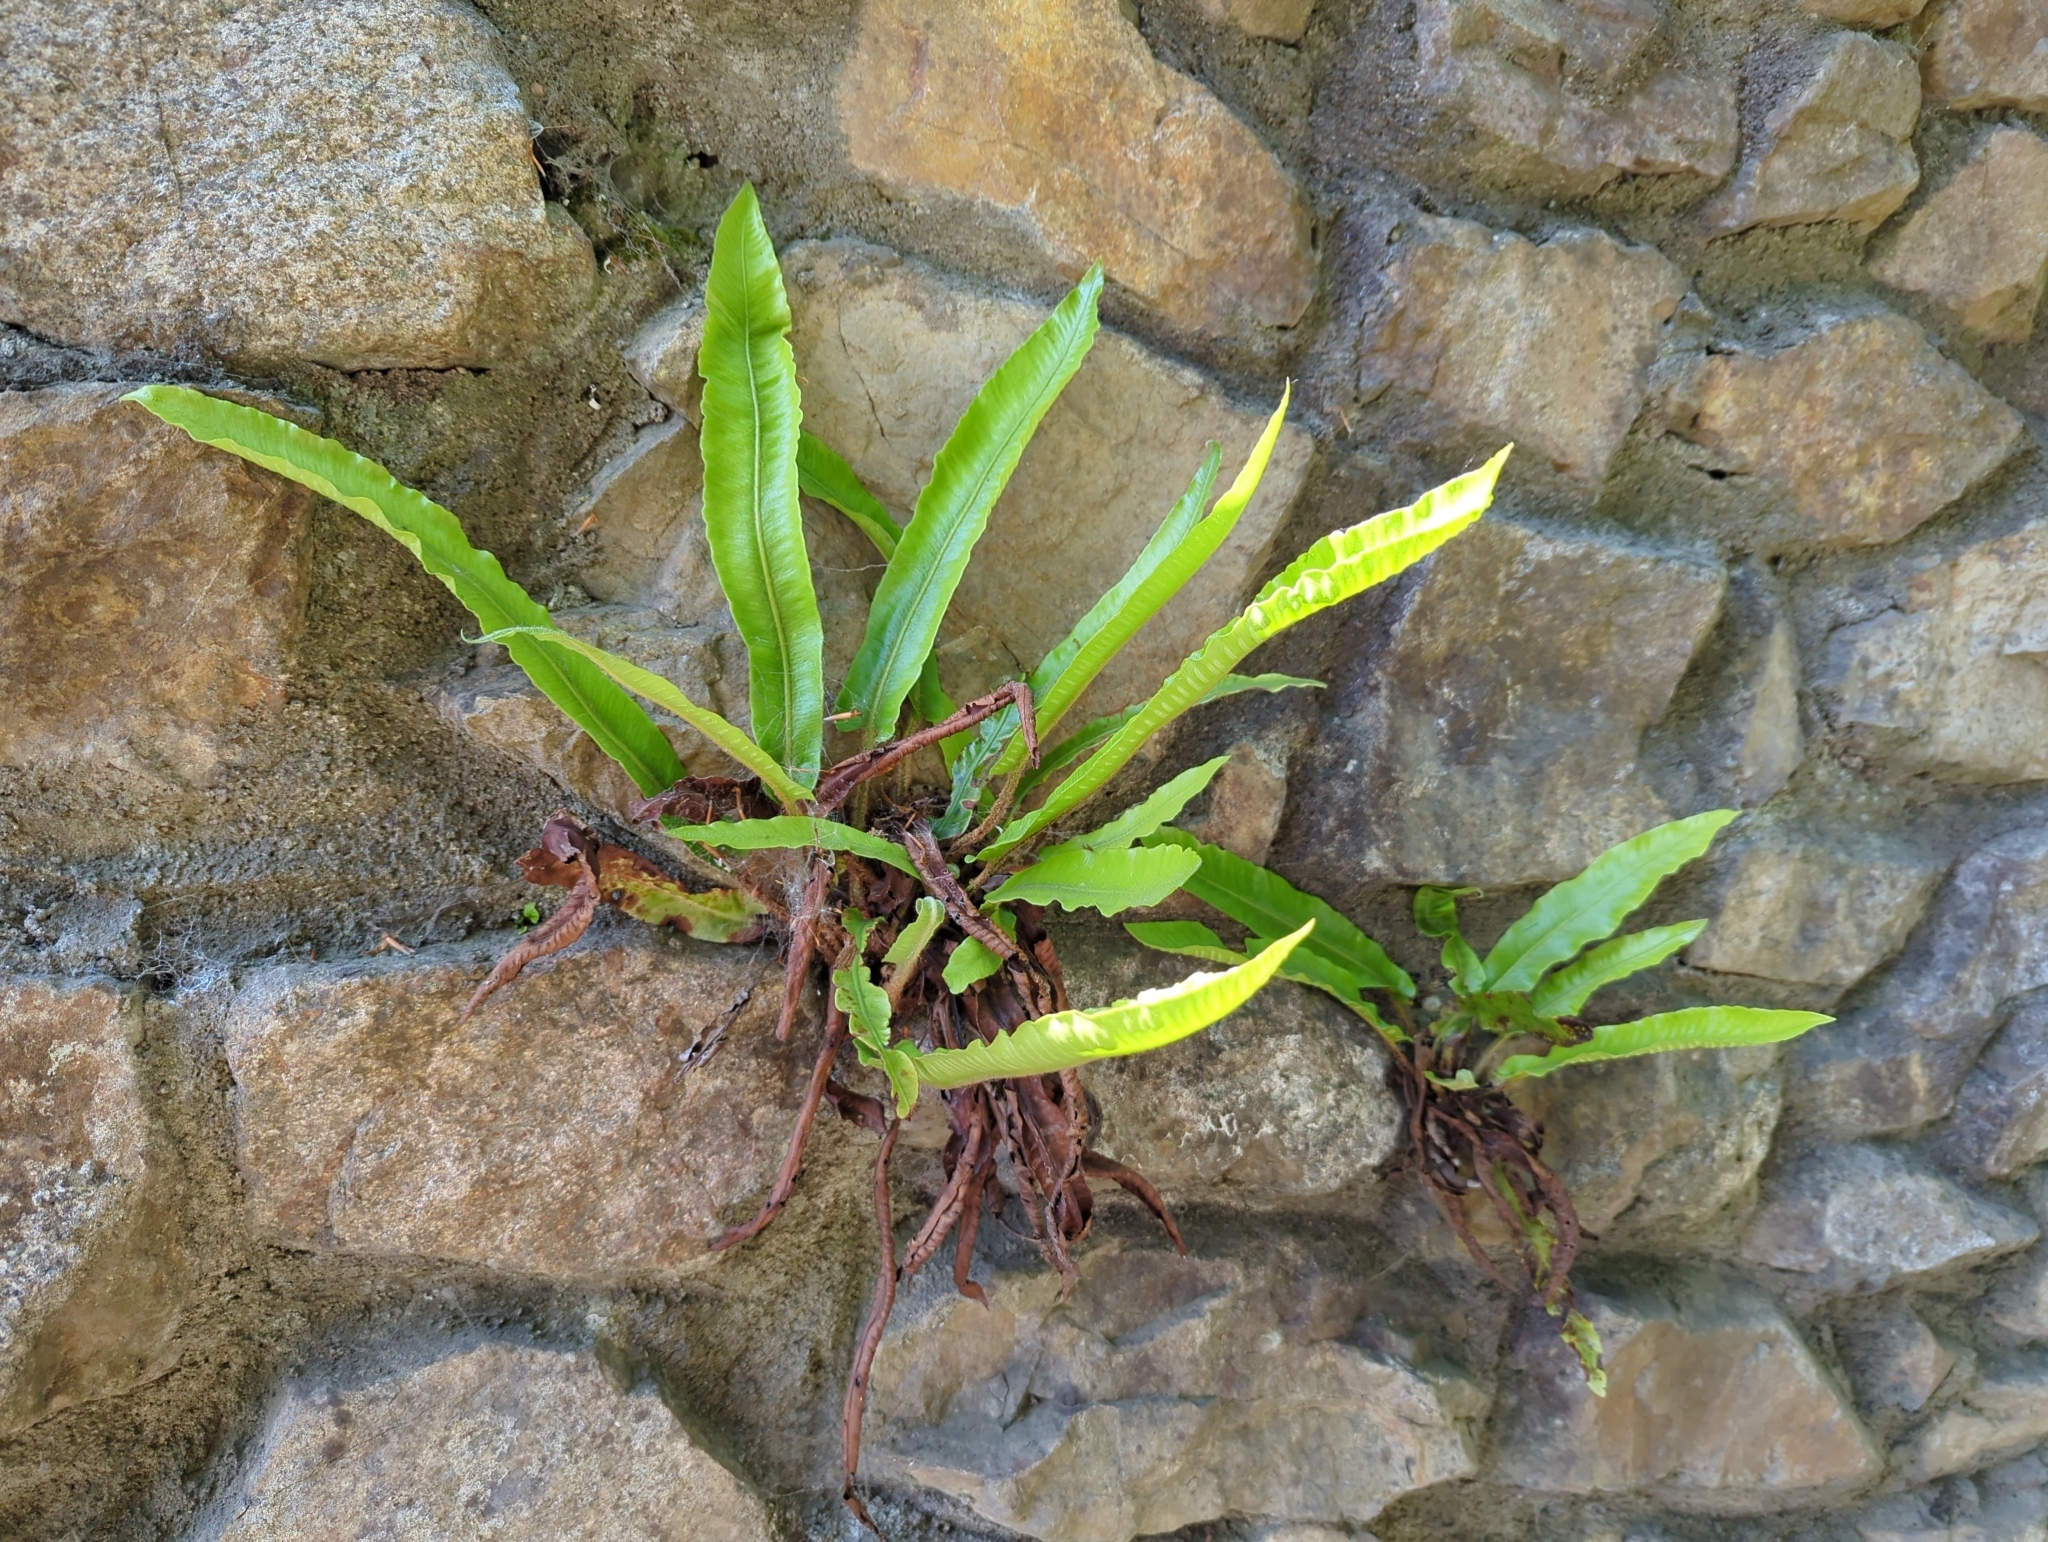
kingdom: Plantae
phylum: Tracheophyta
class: Polypodiopsida
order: Polypodiales
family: Aspleniaceae
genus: Asplenium
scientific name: Asplenium scolopendrium
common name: Hart's-tongue fern
